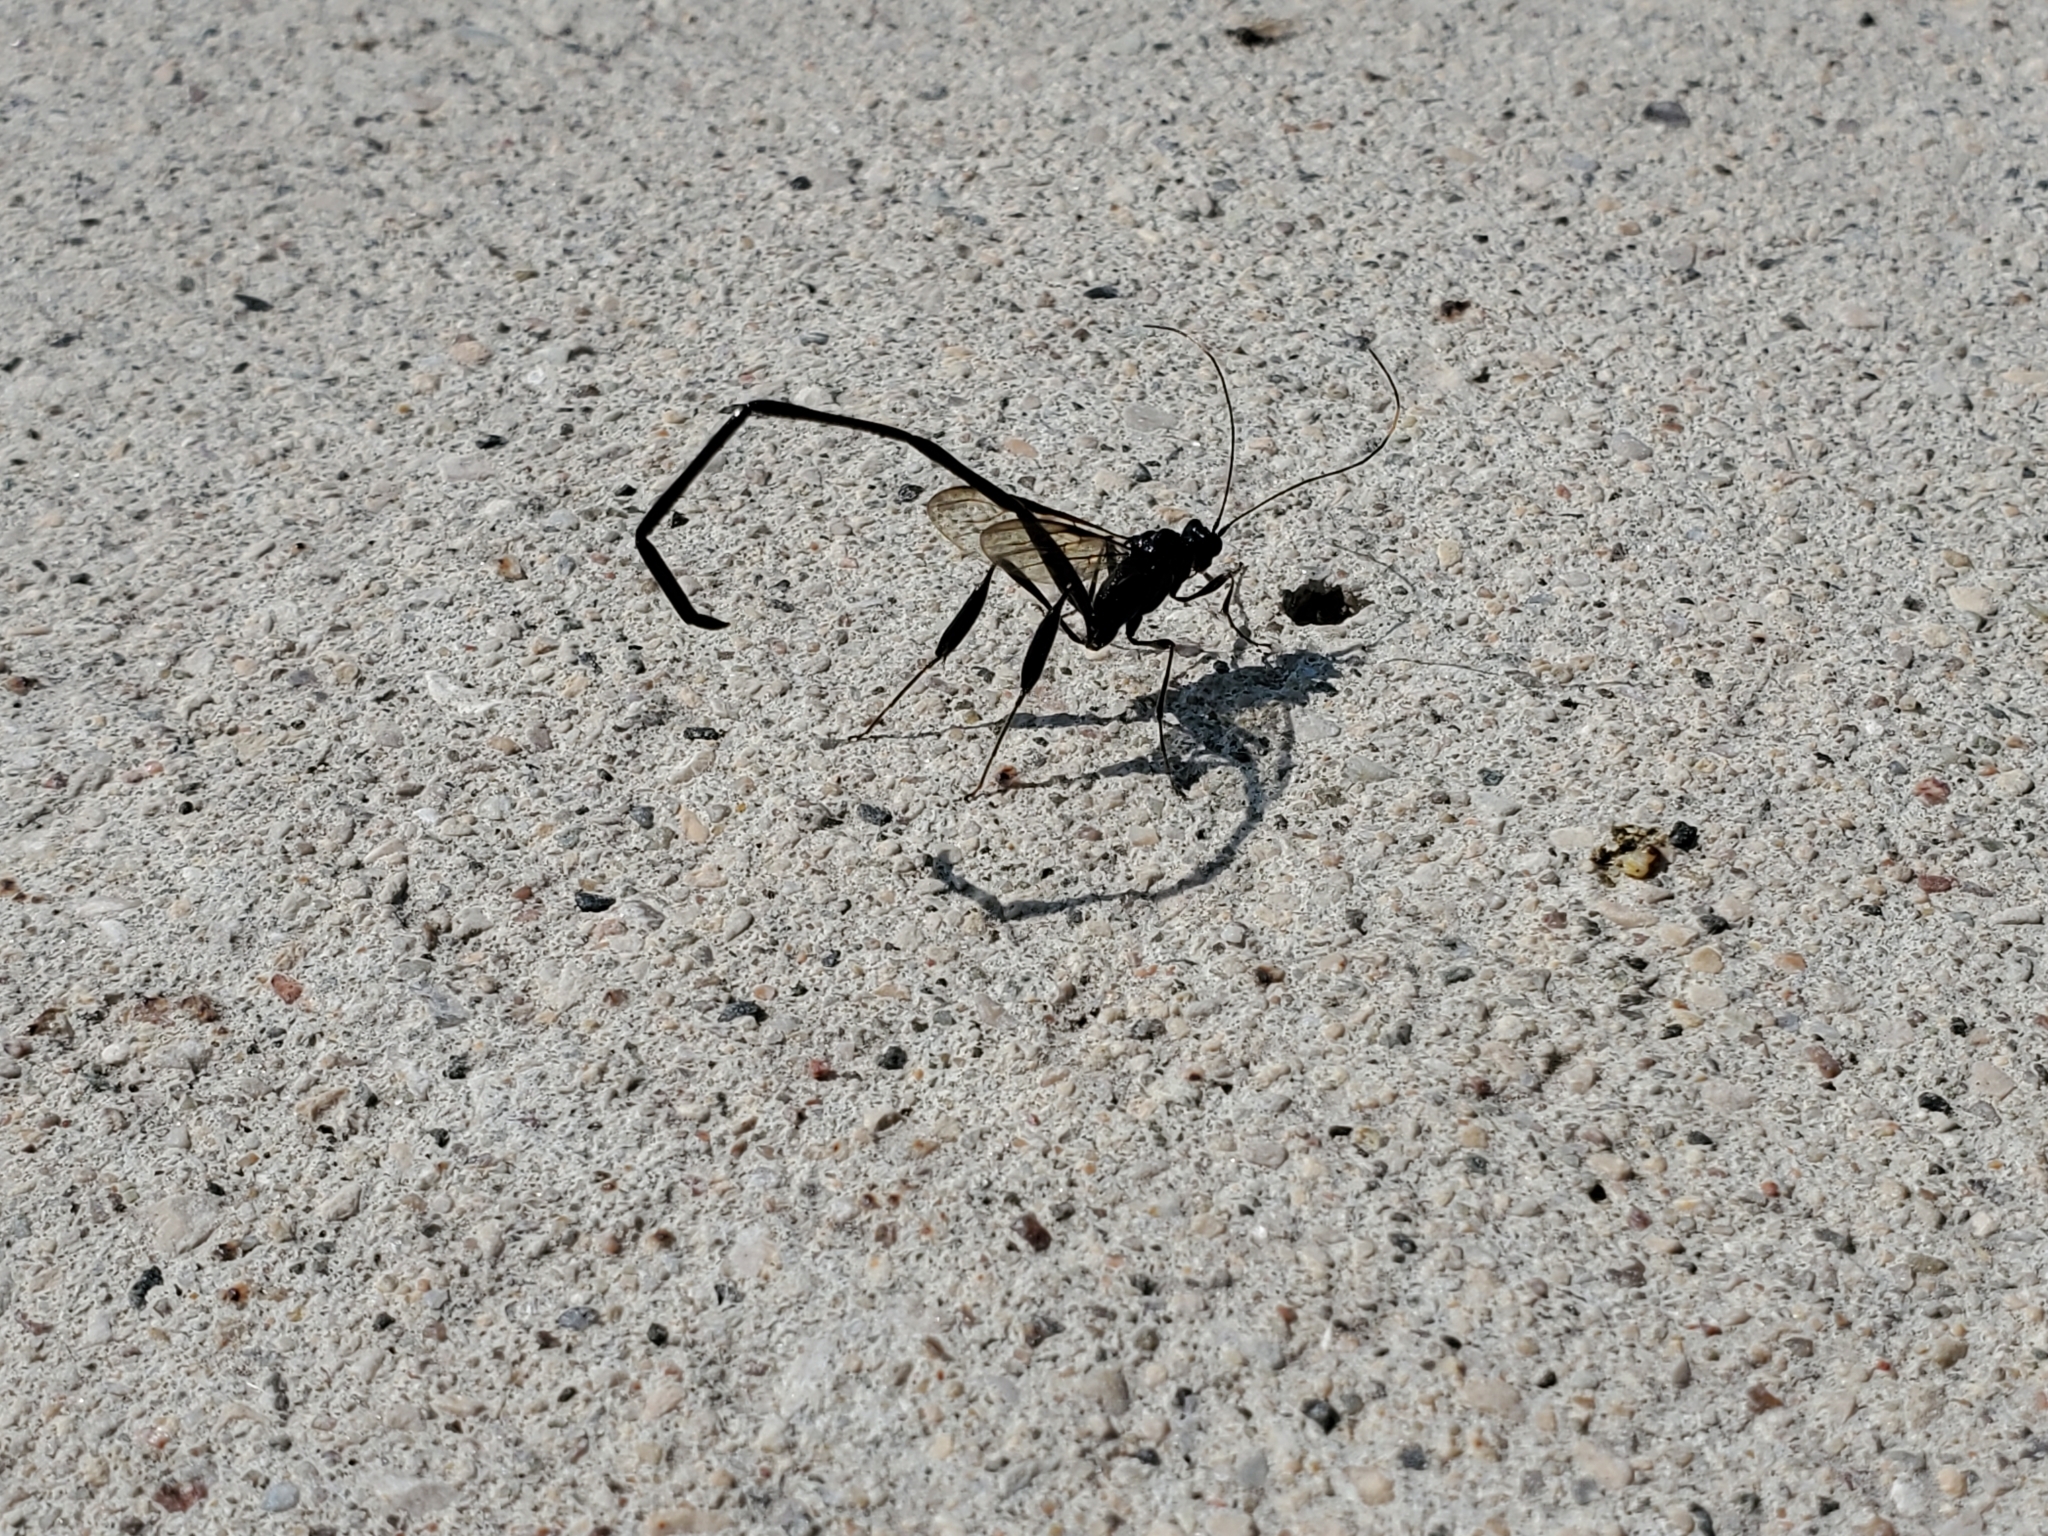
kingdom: Animalia
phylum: Arthropoda
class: Insecta
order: Hymenoptera
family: Pelecinidae
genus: Pelecinus
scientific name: Pelecinus polyturator
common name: American pelecinid wasp
